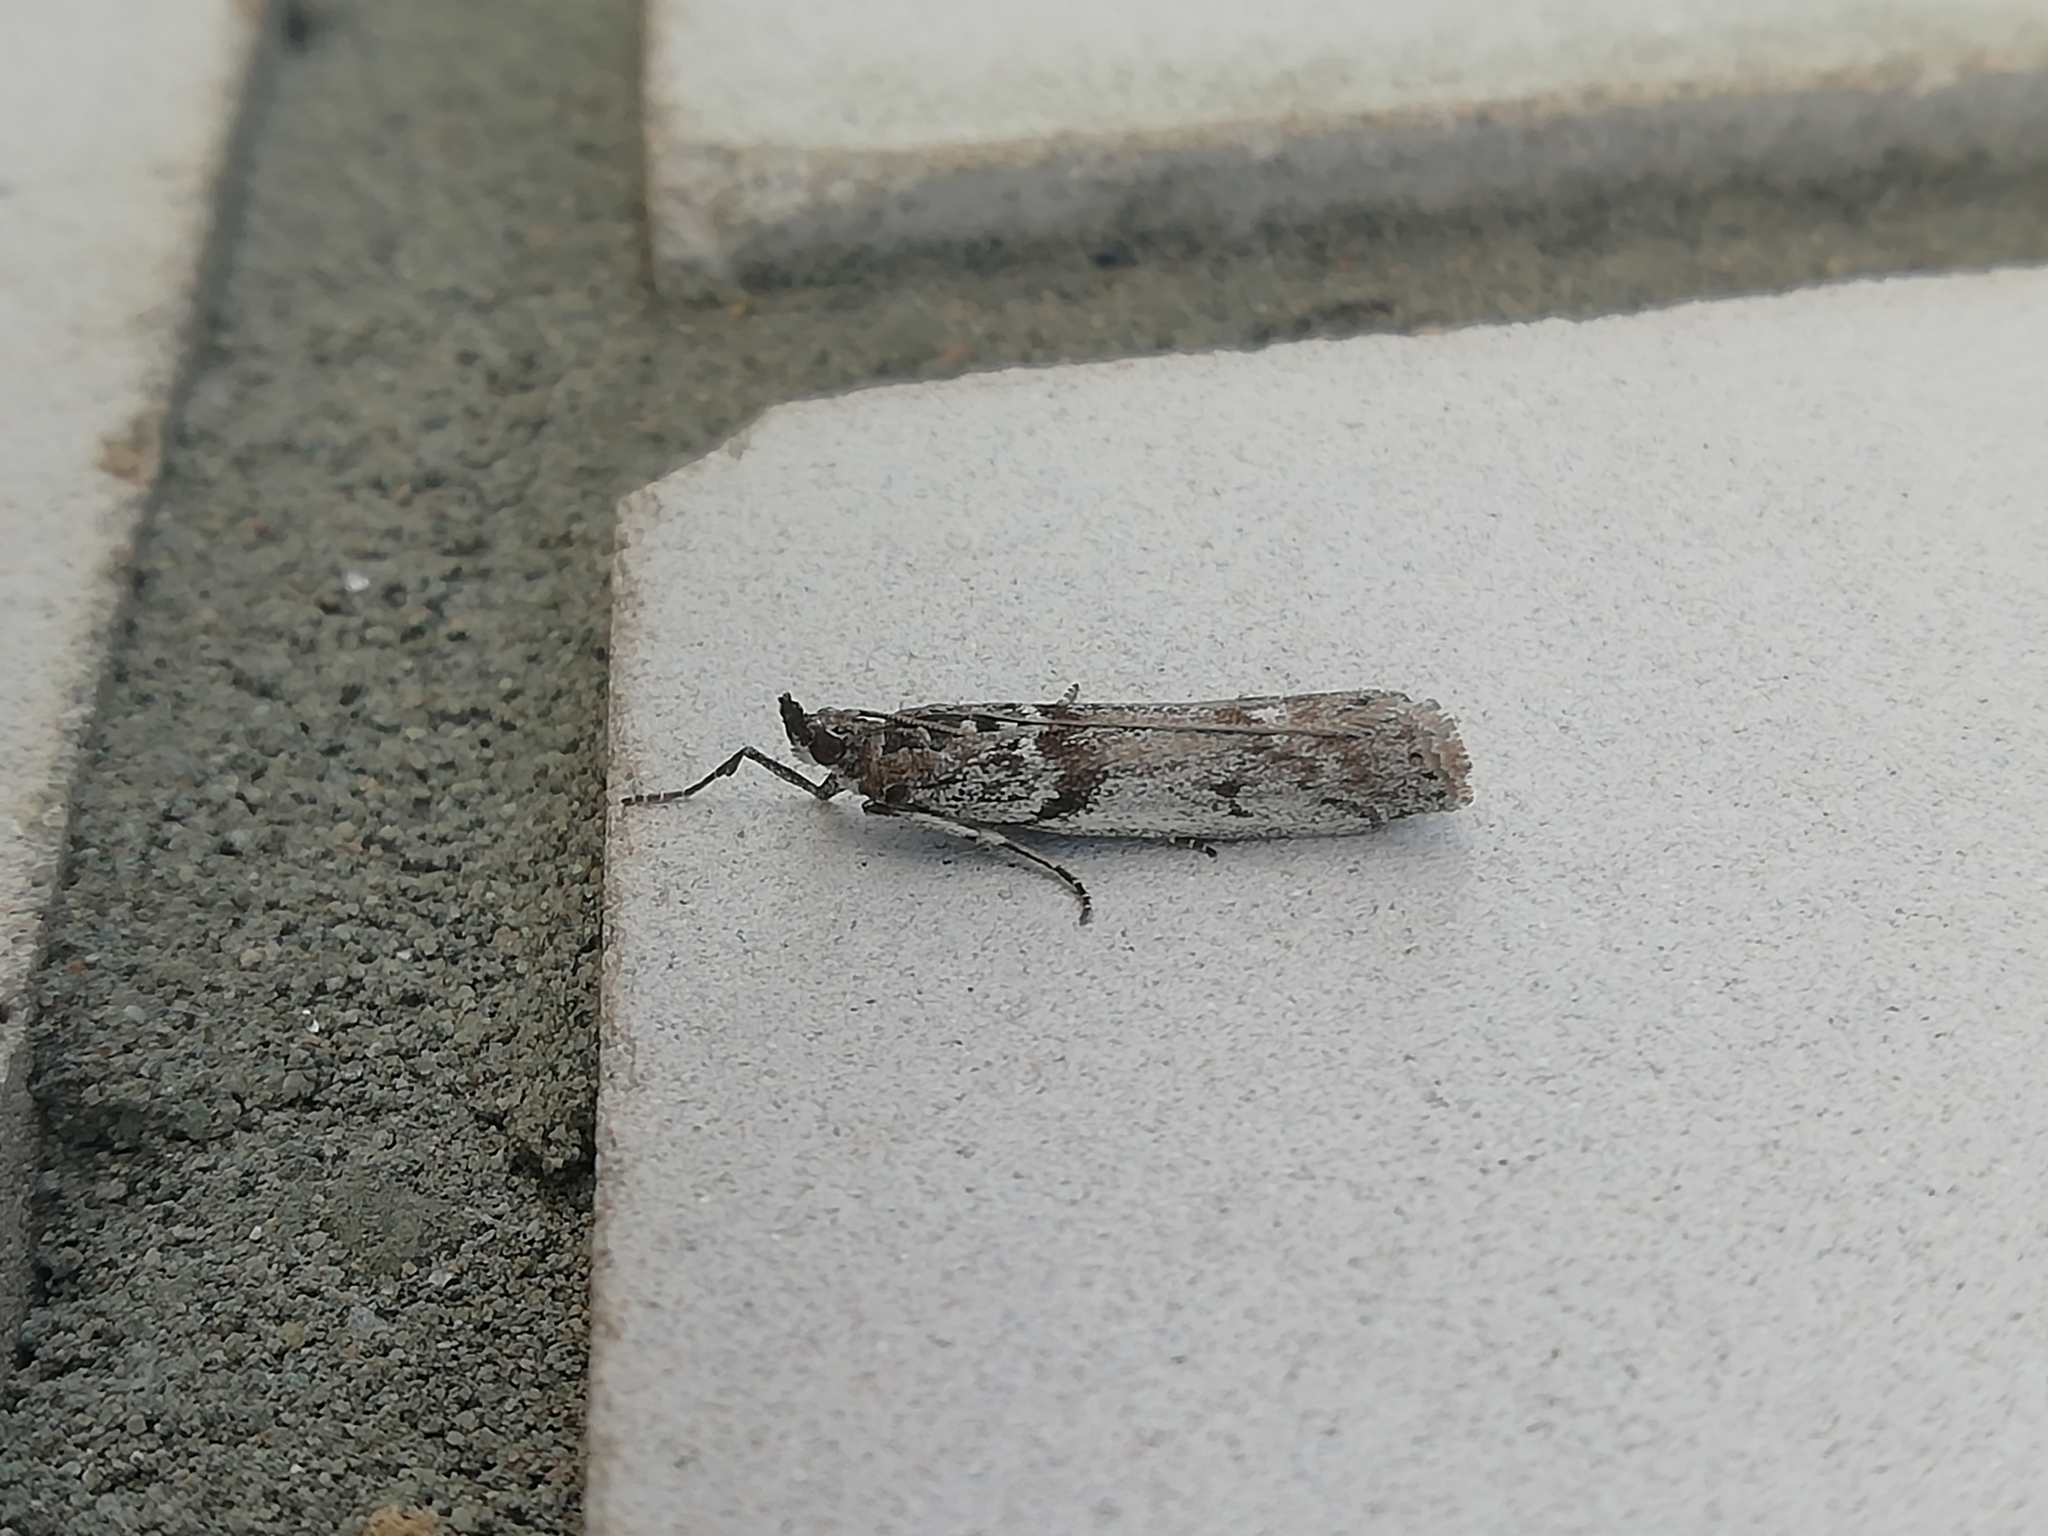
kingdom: Animalia
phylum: Arthropoda
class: Insecta
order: Lepidoptera
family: Pyralidae
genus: Zophodia
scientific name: Zophodia convolutella
